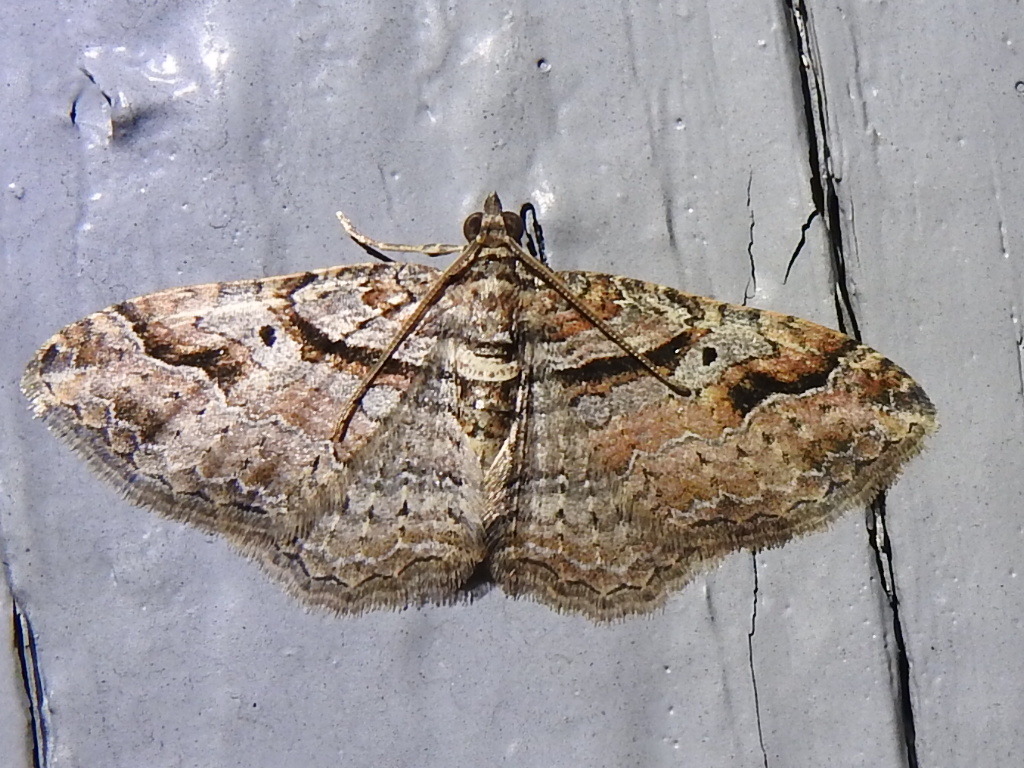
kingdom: Animalia
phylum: Arthropoda
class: Insecta
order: Lepidoptera
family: Geometridae
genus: Costaconvexa
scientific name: Costaconvexa centrostrigaria
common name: Bent-line carpet
